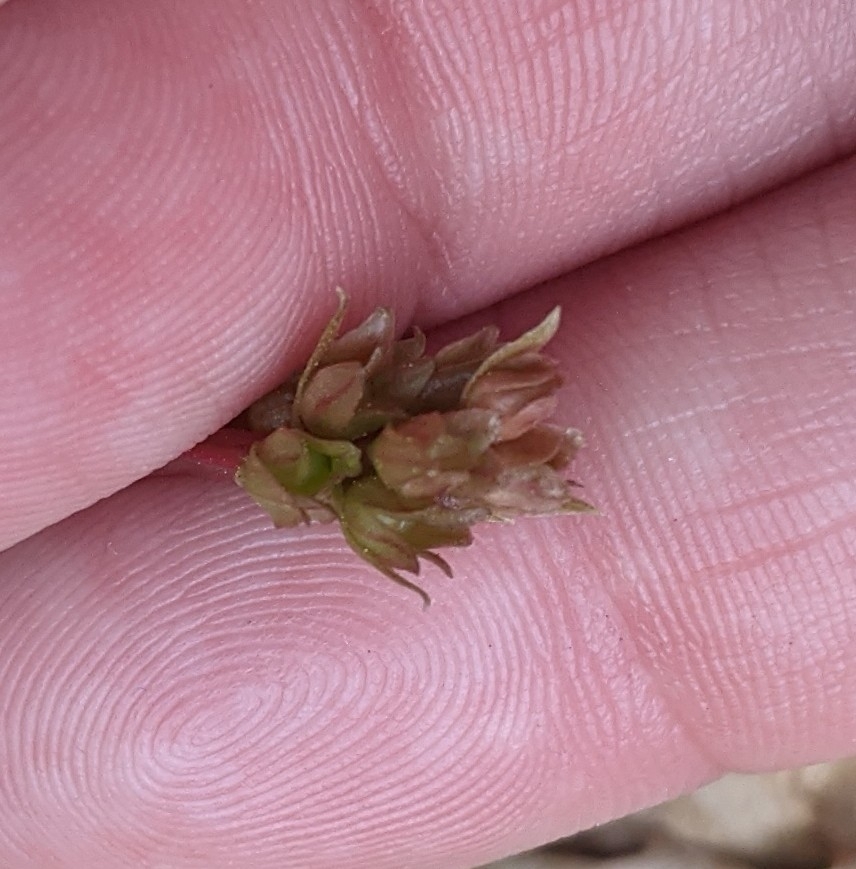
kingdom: Plantae
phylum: Tracheophyta
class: Magnoliopsida
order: Ericales
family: Ericaceae
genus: Pyrola
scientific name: Pyrola americana
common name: American wintergreen
